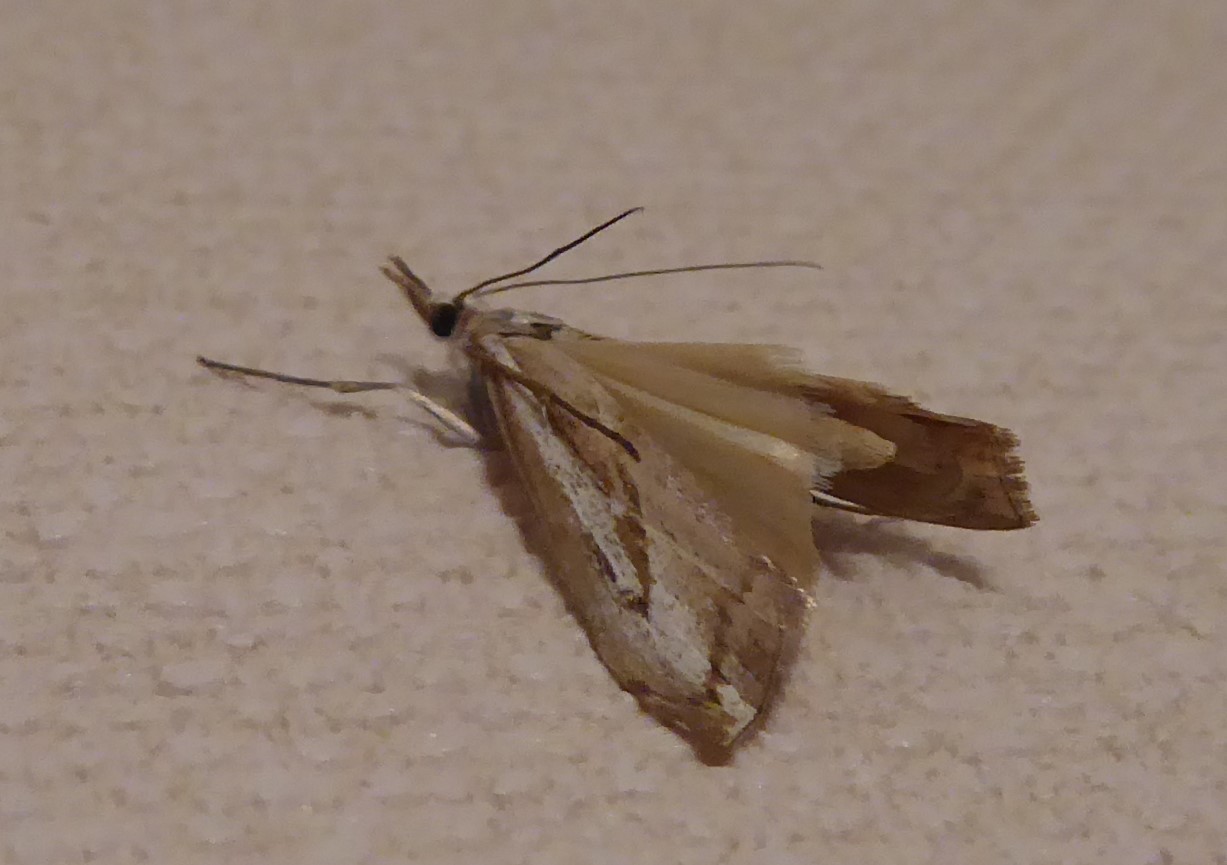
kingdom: Animalia
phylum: Arthropoda
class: Insecta
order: Lepidoptera
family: Crambidae
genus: Orocrambus
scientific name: Orocrambus vittellus
